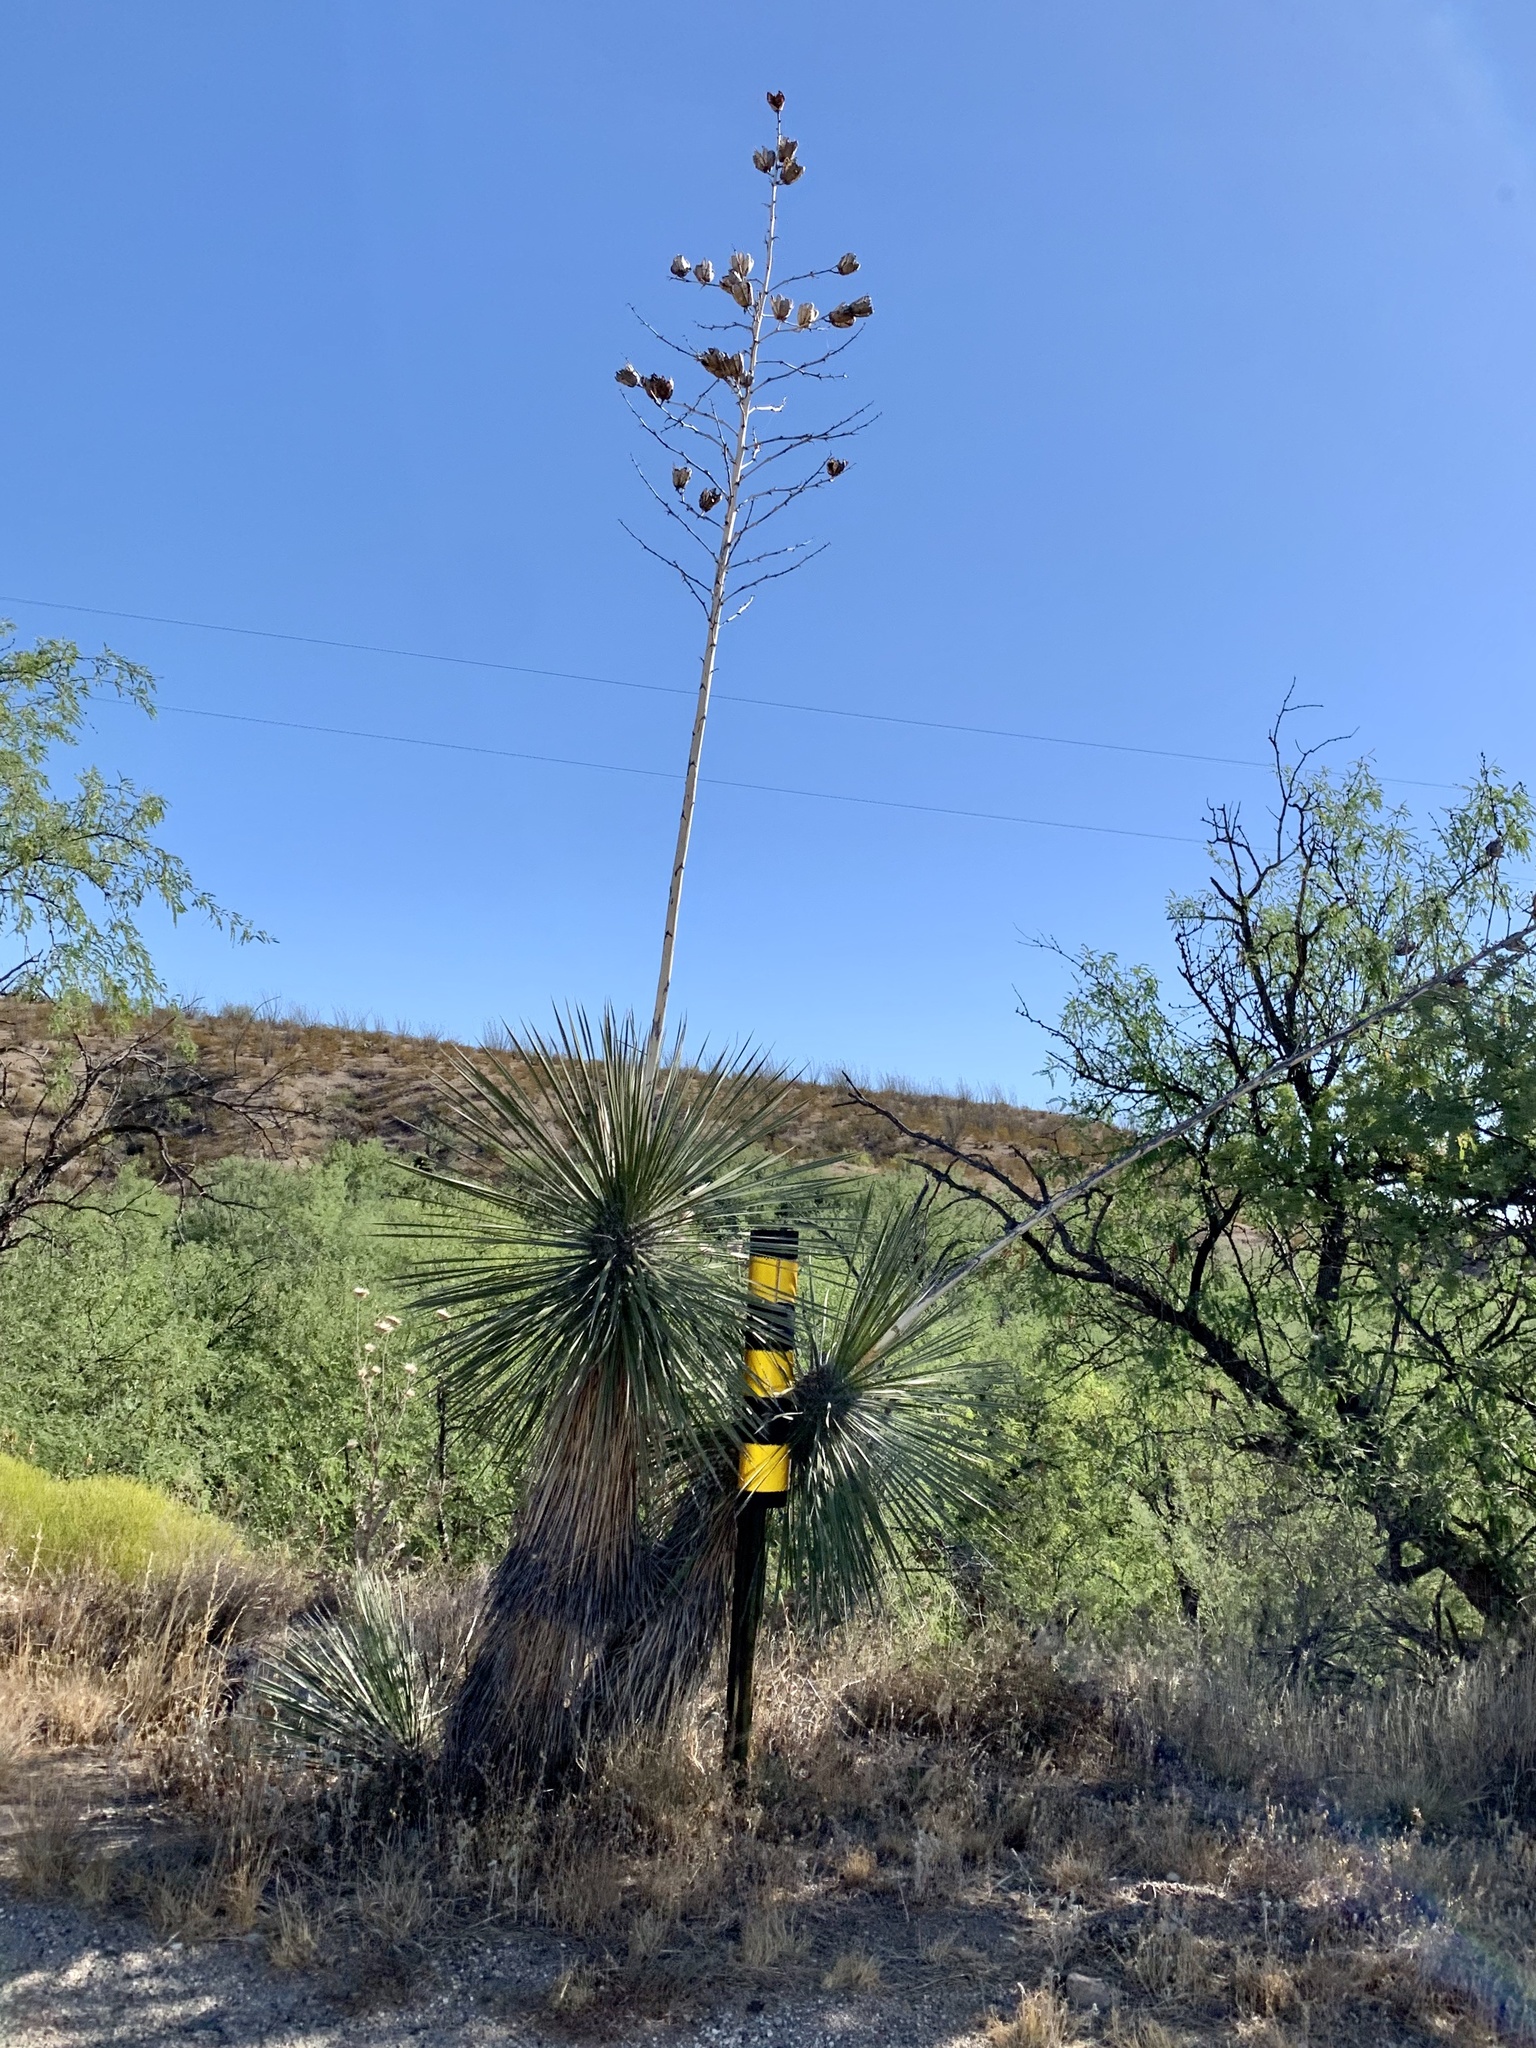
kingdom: Plantae
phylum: Tracheophyta
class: Liliopsida
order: Asparagales
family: Asparagaceae
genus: Yucca
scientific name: Yucca elata
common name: Palmella
